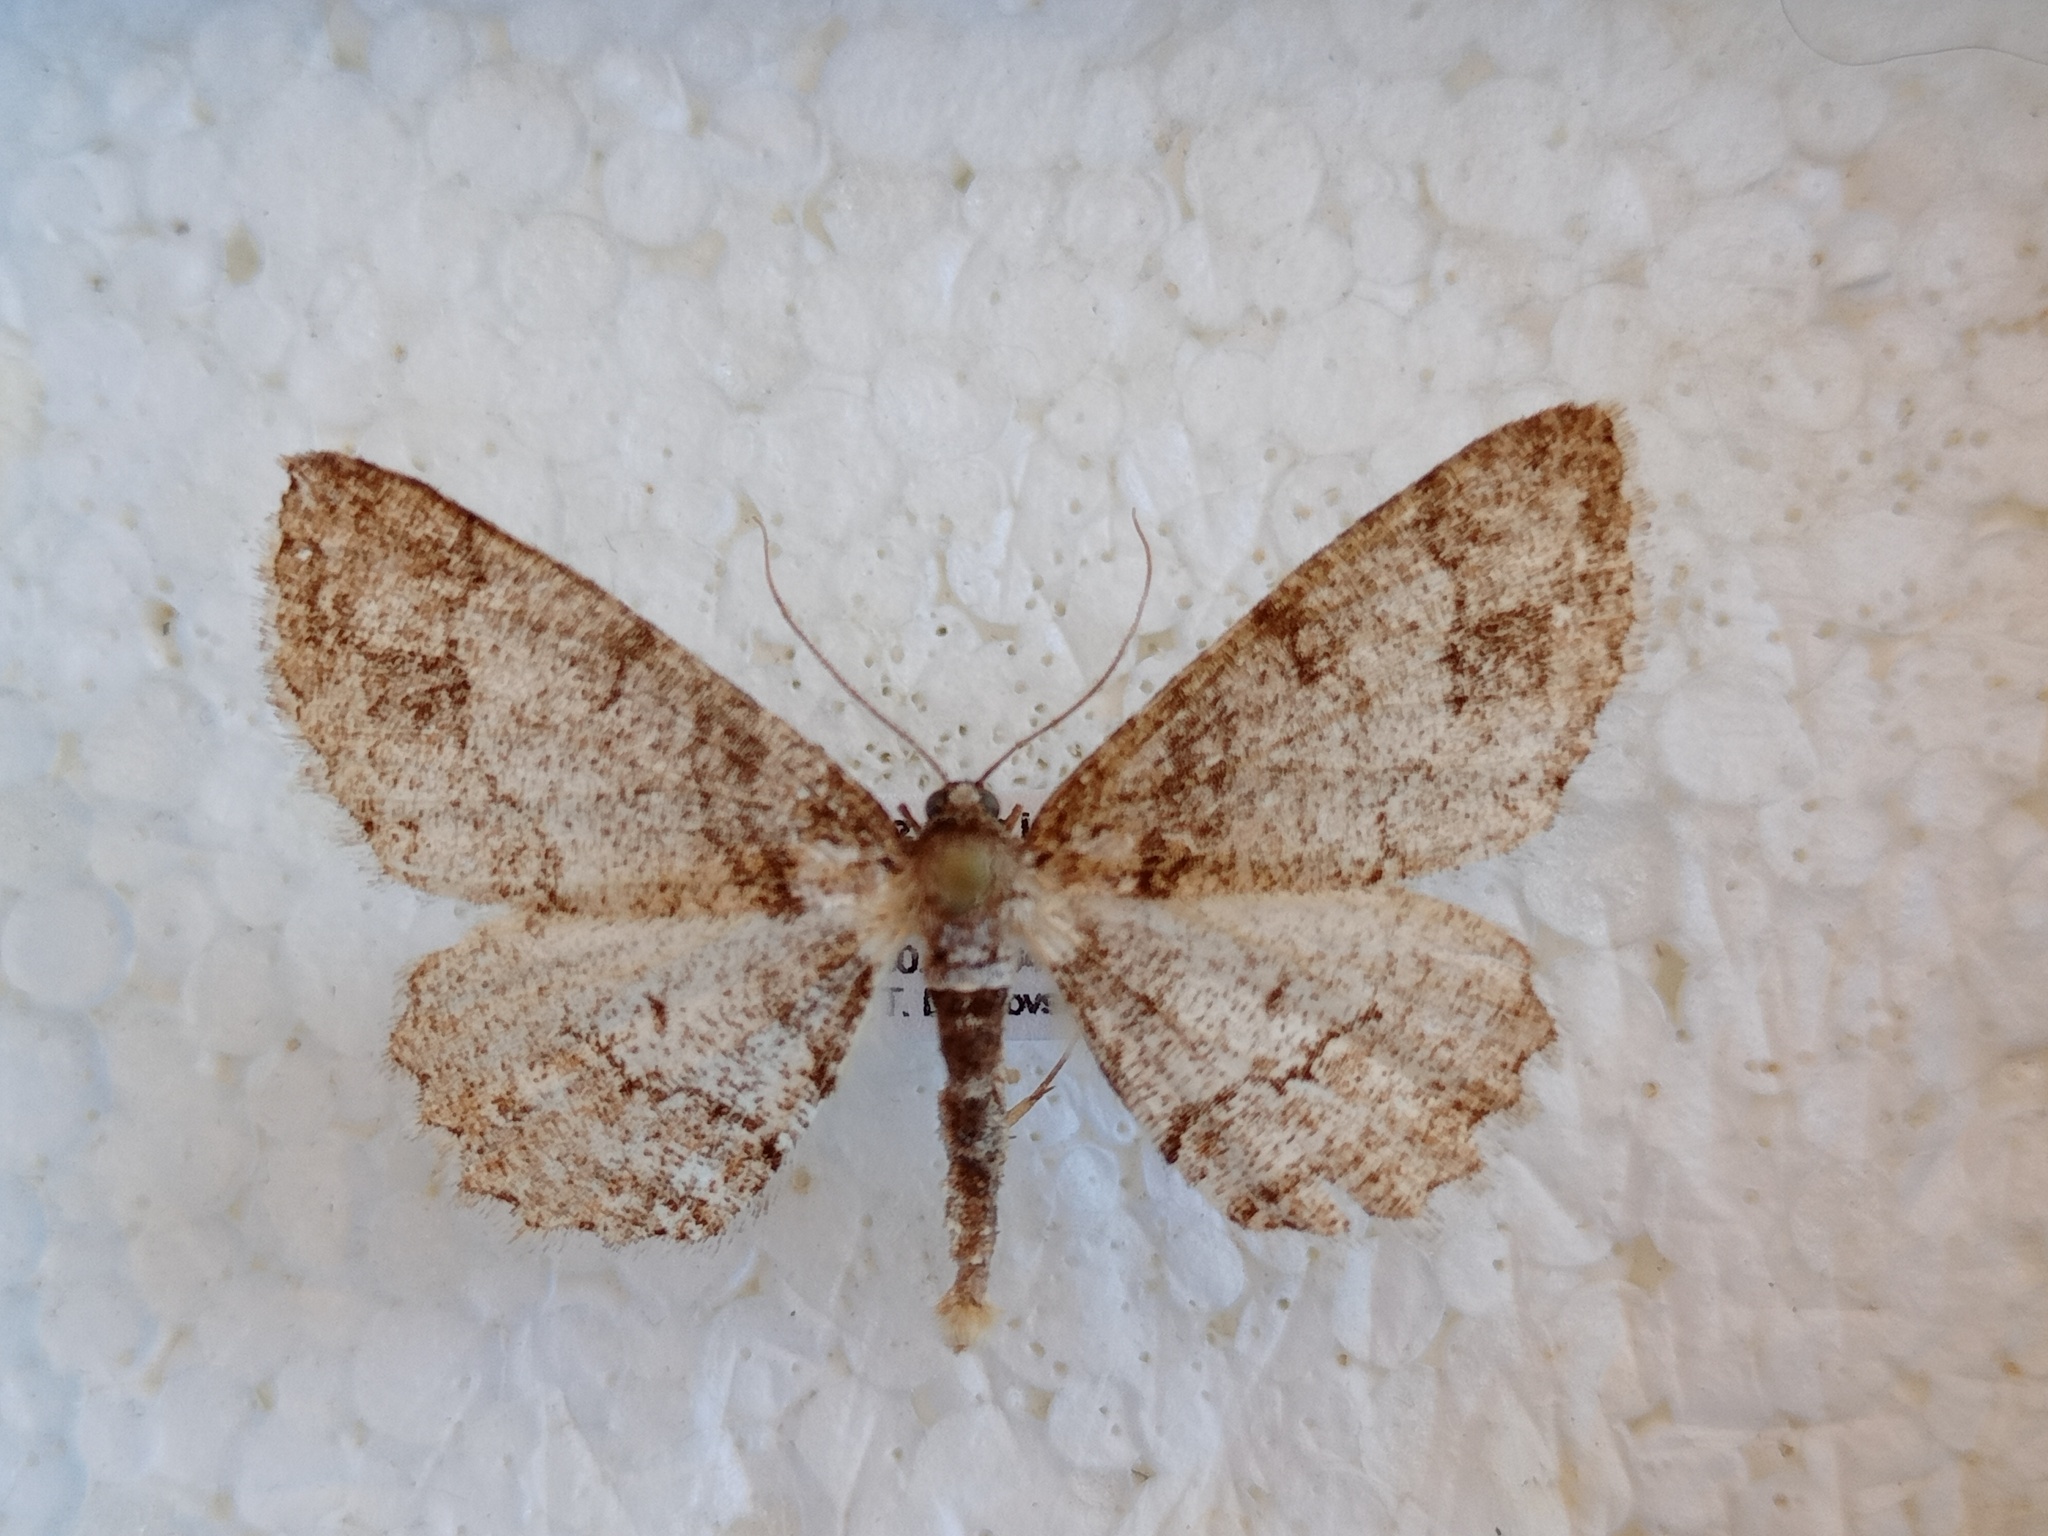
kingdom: Animalia
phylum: Arthropoda
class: Insecta
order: Lepidoptera
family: Geometridae
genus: Paradarisa
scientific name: Paradarisa consonaria
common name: Square spot
